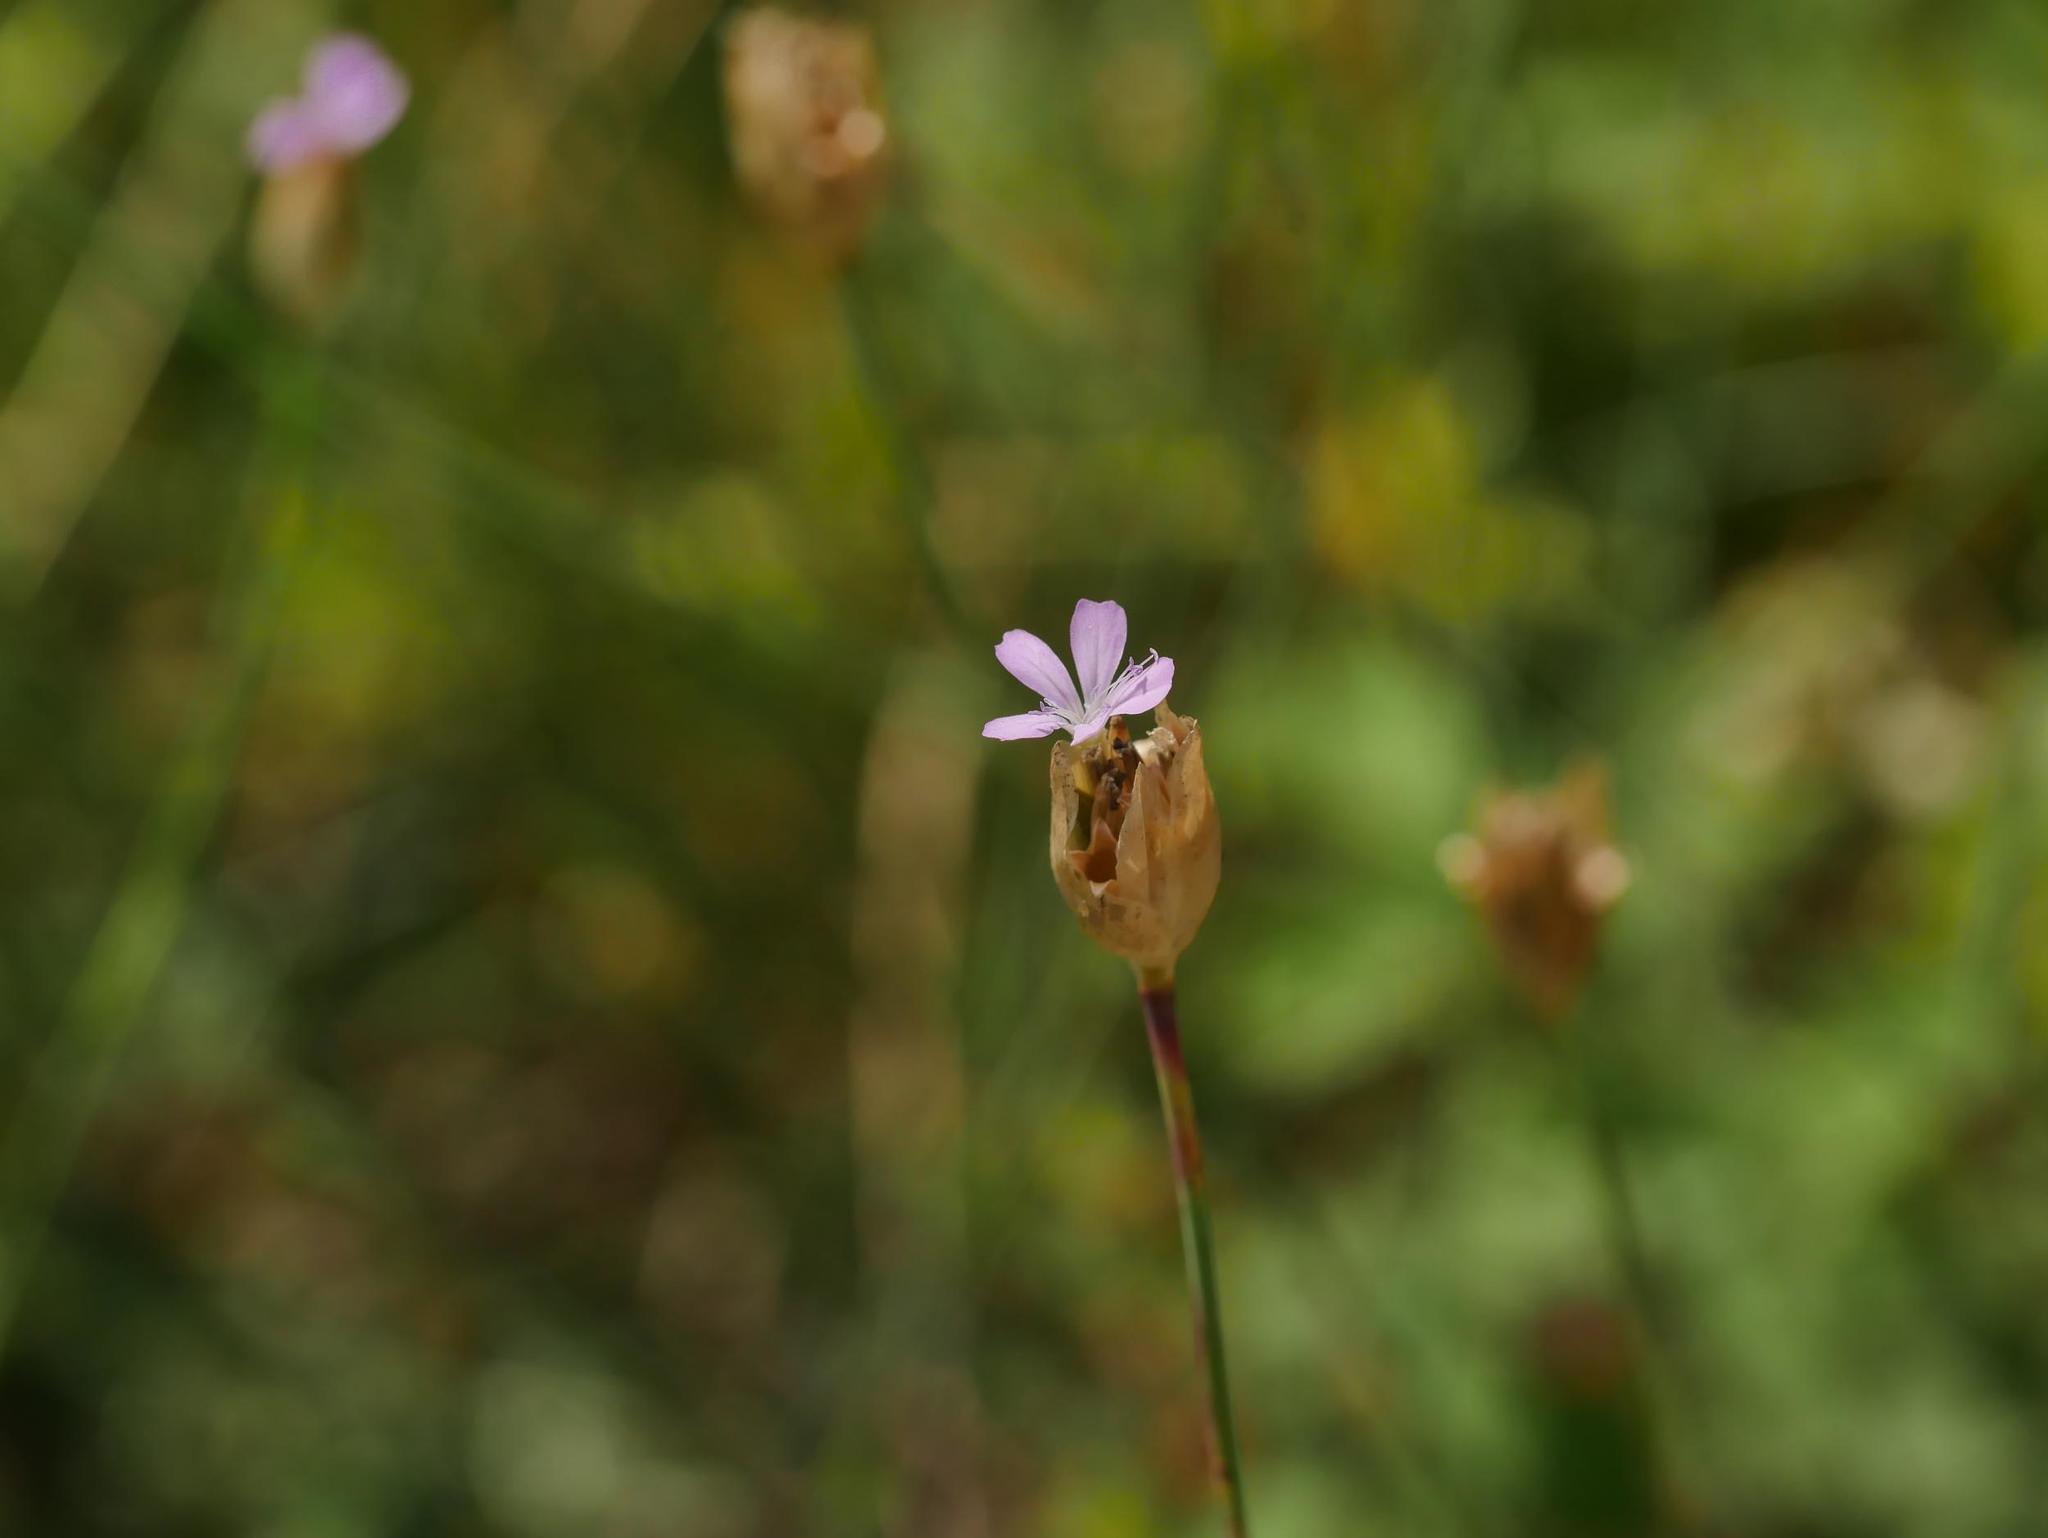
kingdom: Plantae
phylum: Tracheophyta
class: Magnoliopsida
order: Caryophyllales
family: Caryophyllaceae
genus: Petrorhagia
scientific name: Petrorhagia prolifera
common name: Proliferous pink
